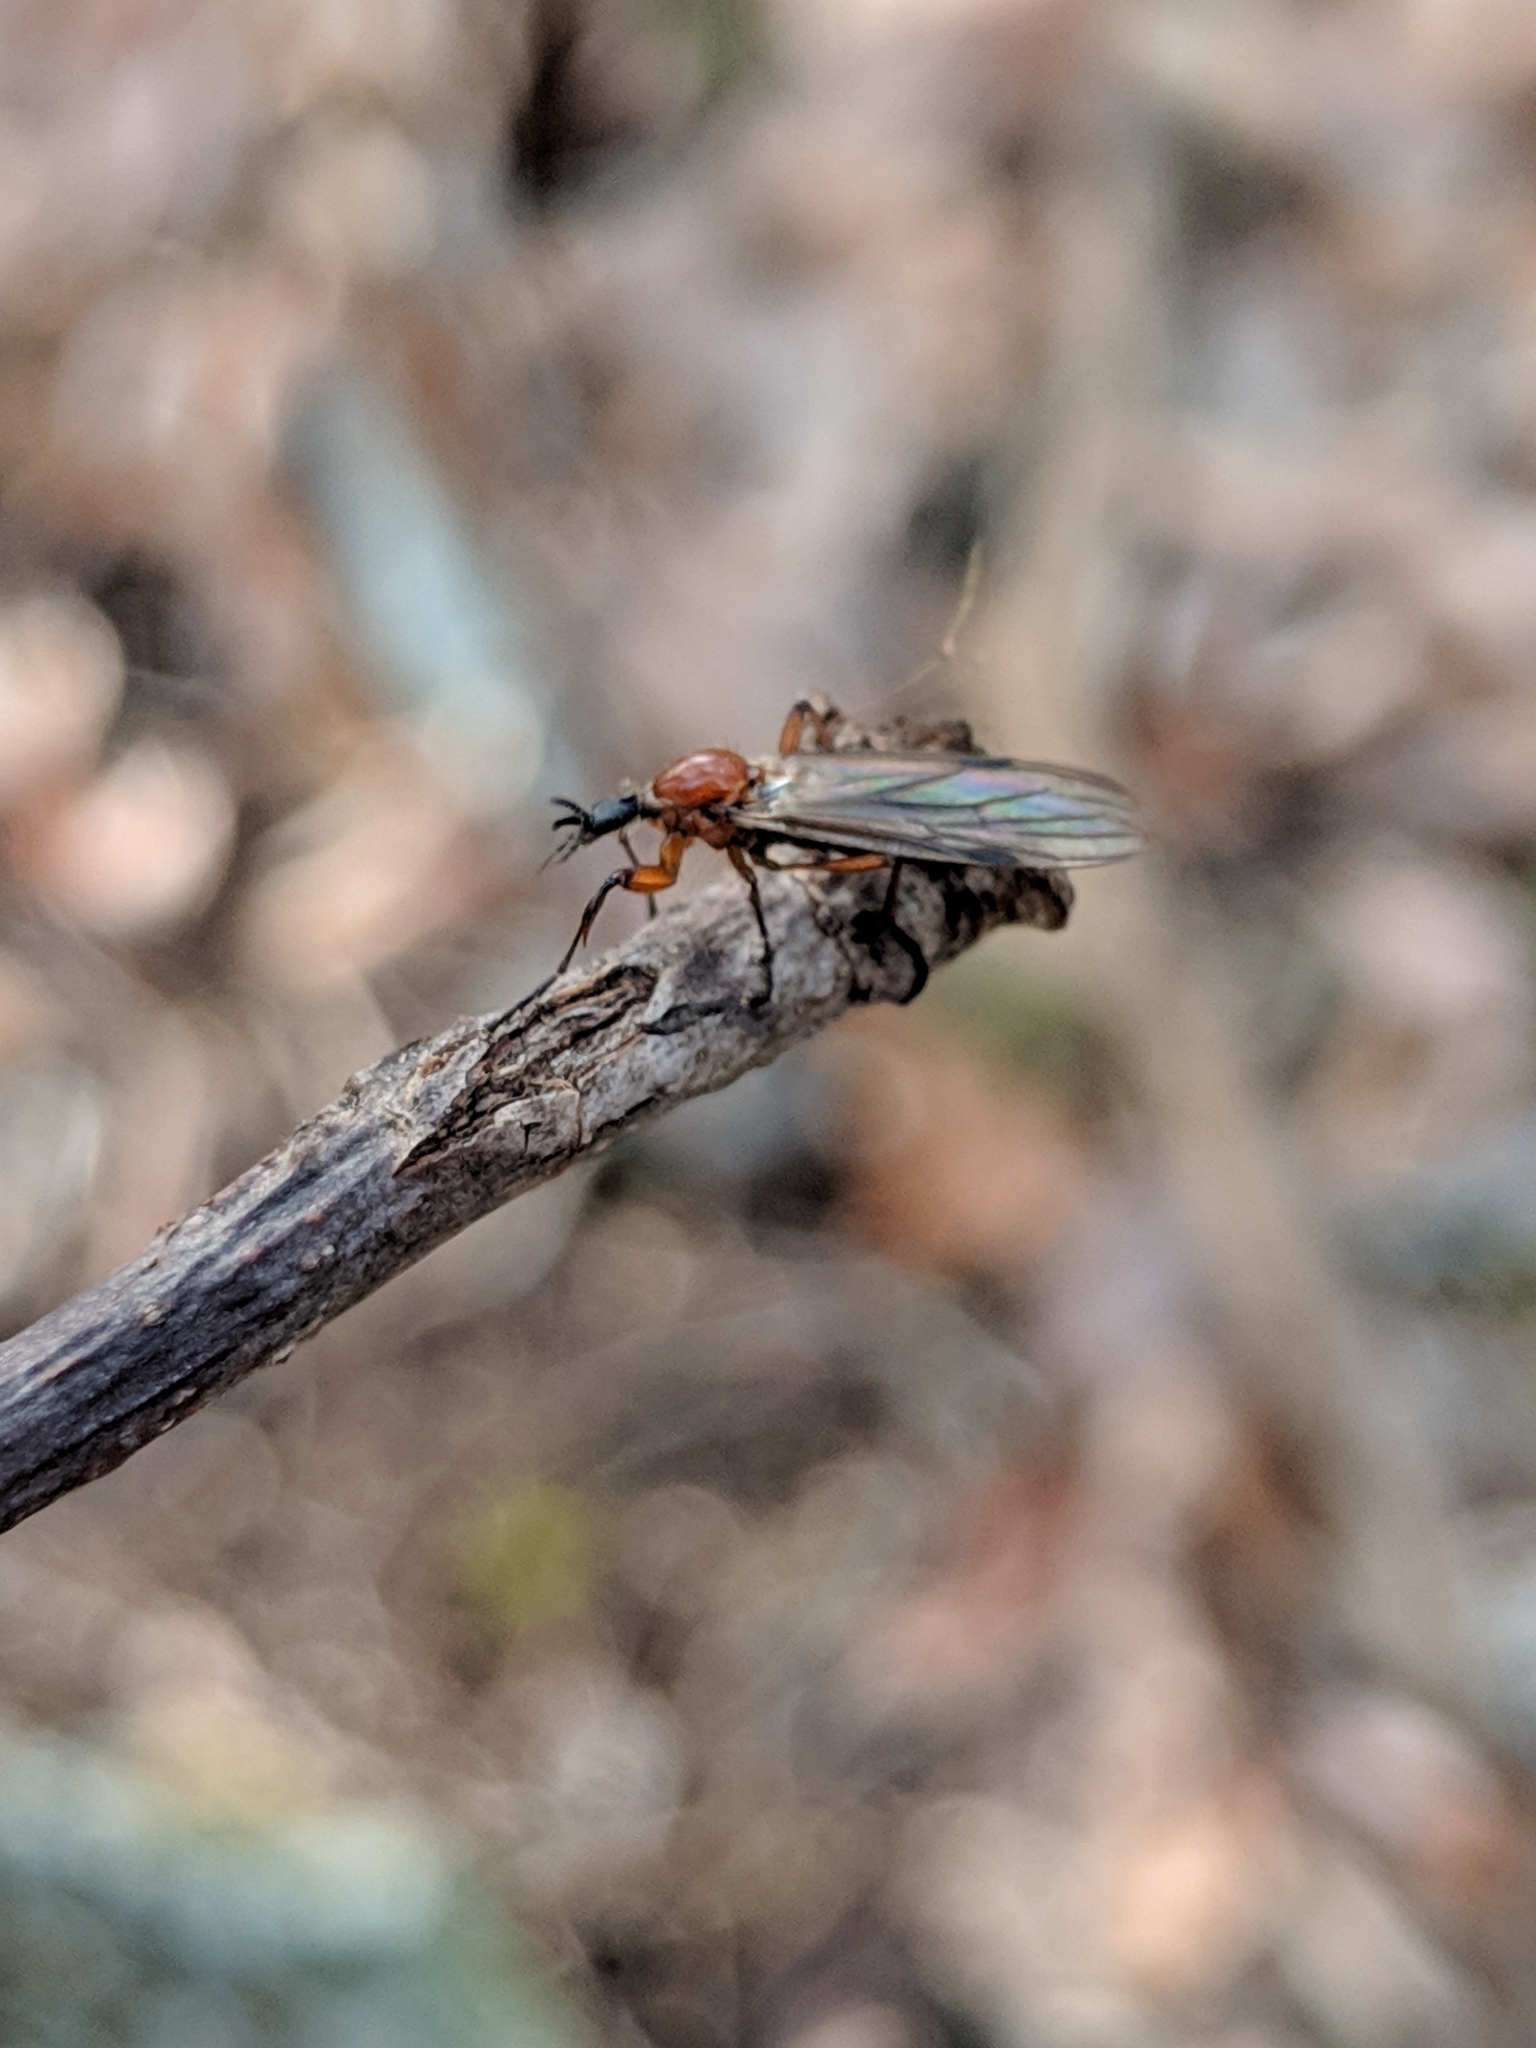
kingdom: Animalia
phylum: Arthropoda
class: Insecta
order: Diptera
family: Bibionidae
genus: Bibio
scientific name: Bibio longipes
